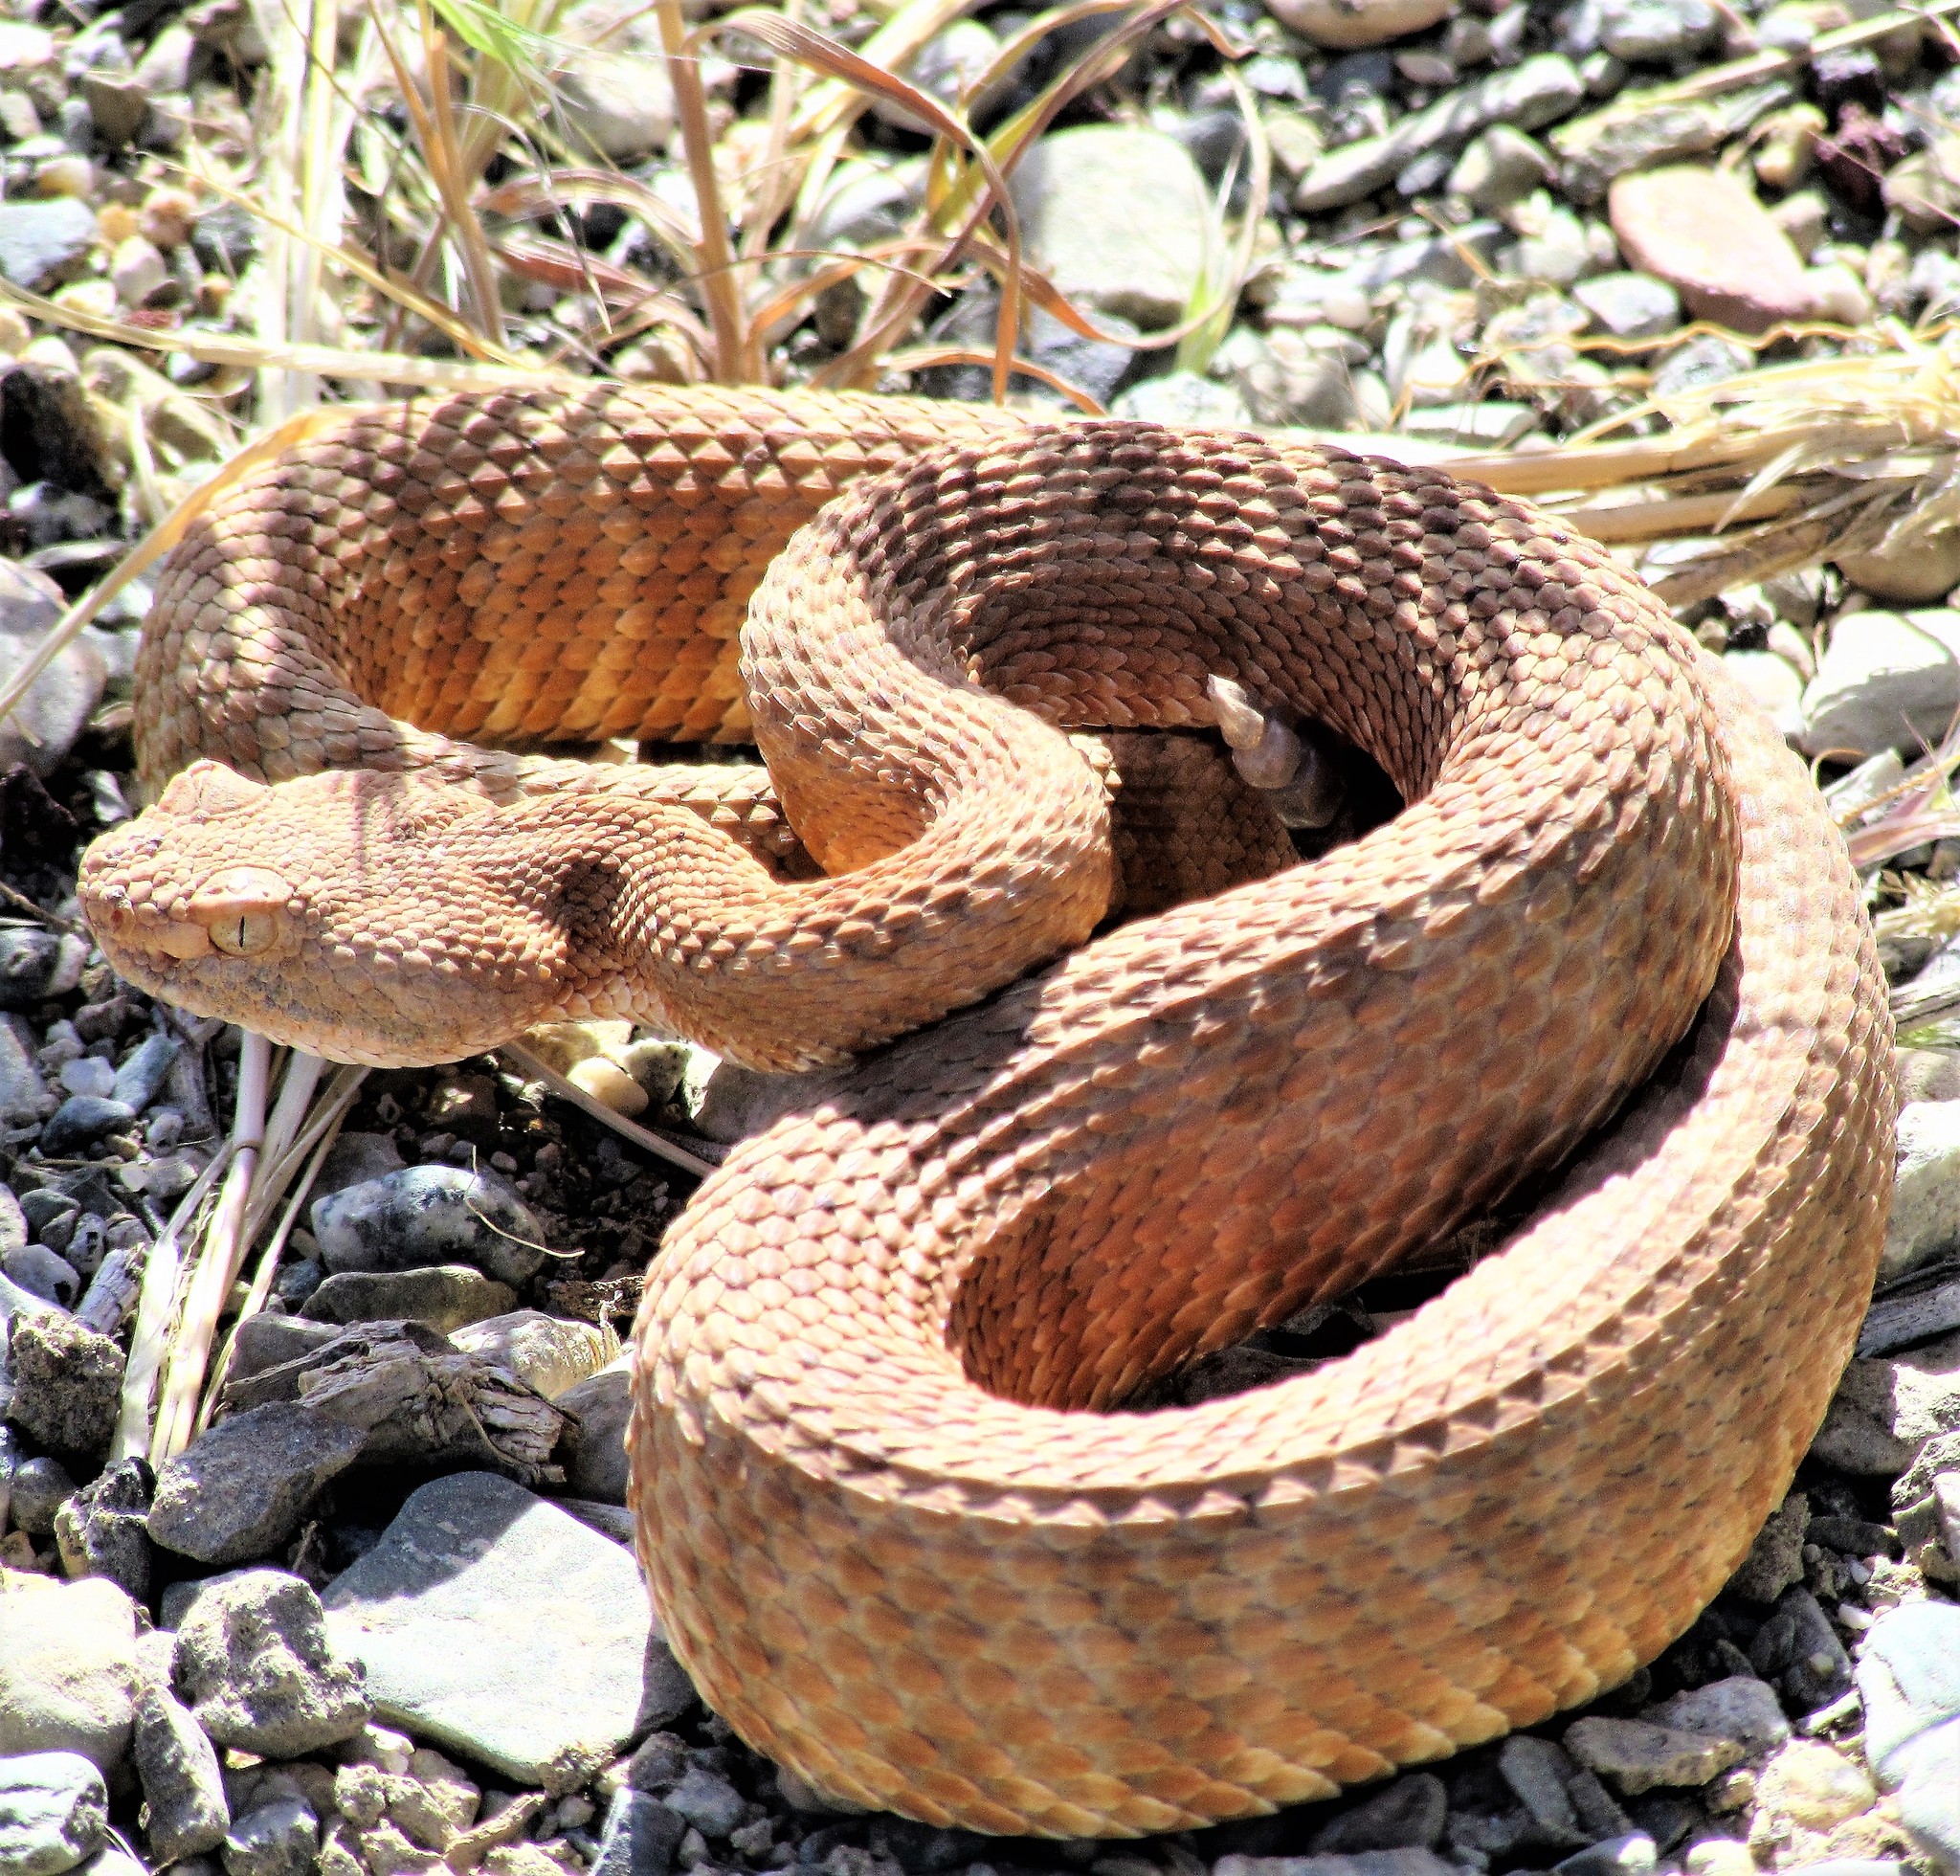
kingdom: Animalia
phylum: Chordata
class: Squamata
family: Viperidae
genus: Crotalus
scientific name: Crotalus stephensi
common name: Panamint rattlesnake
